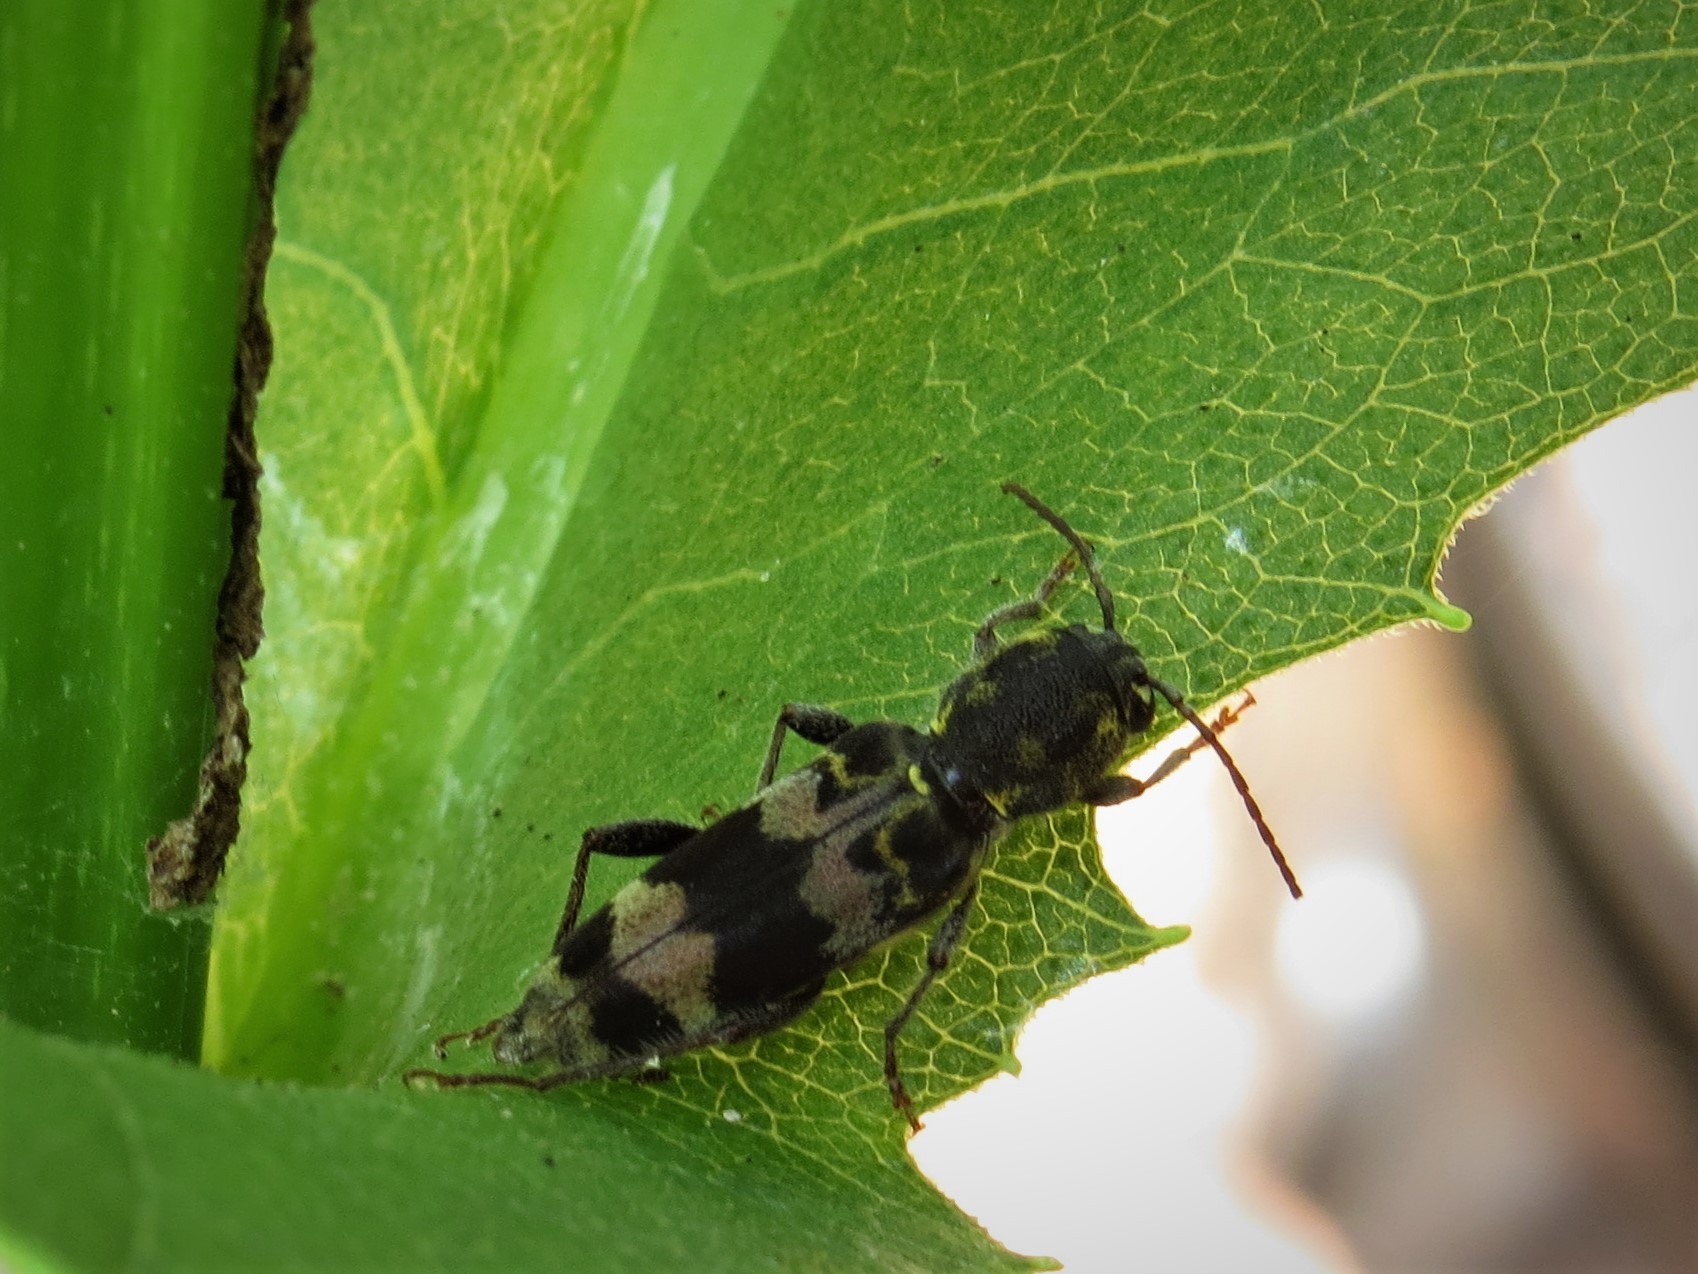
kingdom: Animalia
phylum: Arthropoda
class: Insecta
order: Coleoptera
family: Cerambycidae
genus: Xylotrechus
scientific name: Xylotrechus colonus
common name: Long-horned beetle
